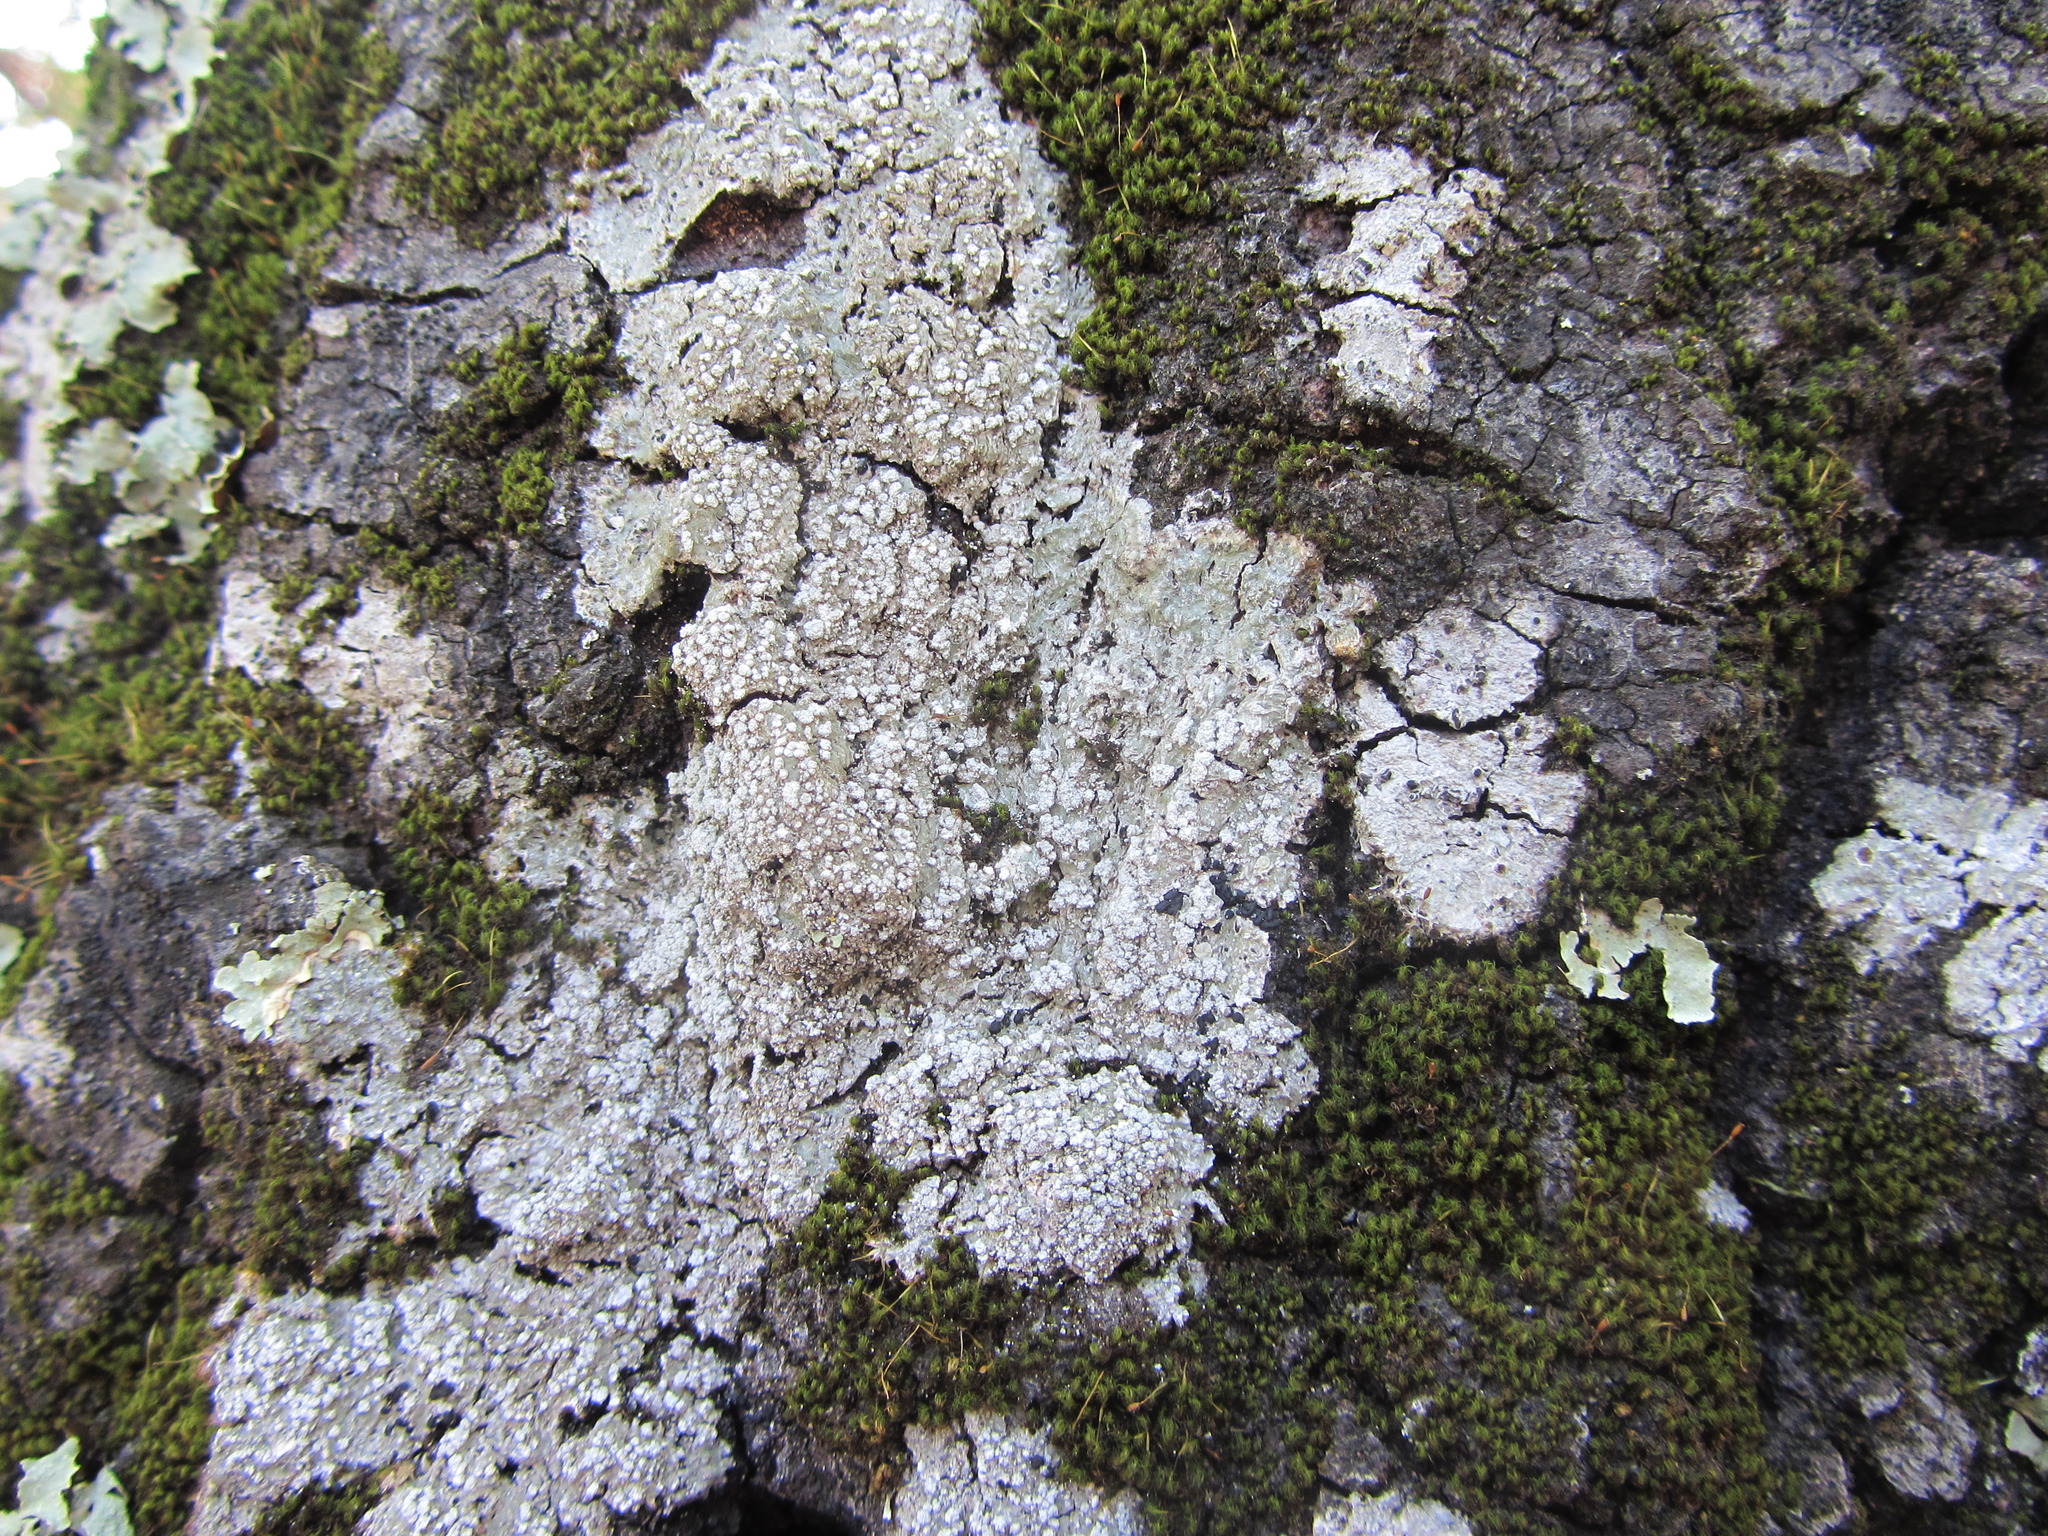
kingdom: Fungi
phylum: Ascomycota
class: Lecanoromycetes
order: Pertusariales
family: Pertusariaceae
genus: Lepra
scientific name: Lepra amara
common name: Bitter wart lichen
